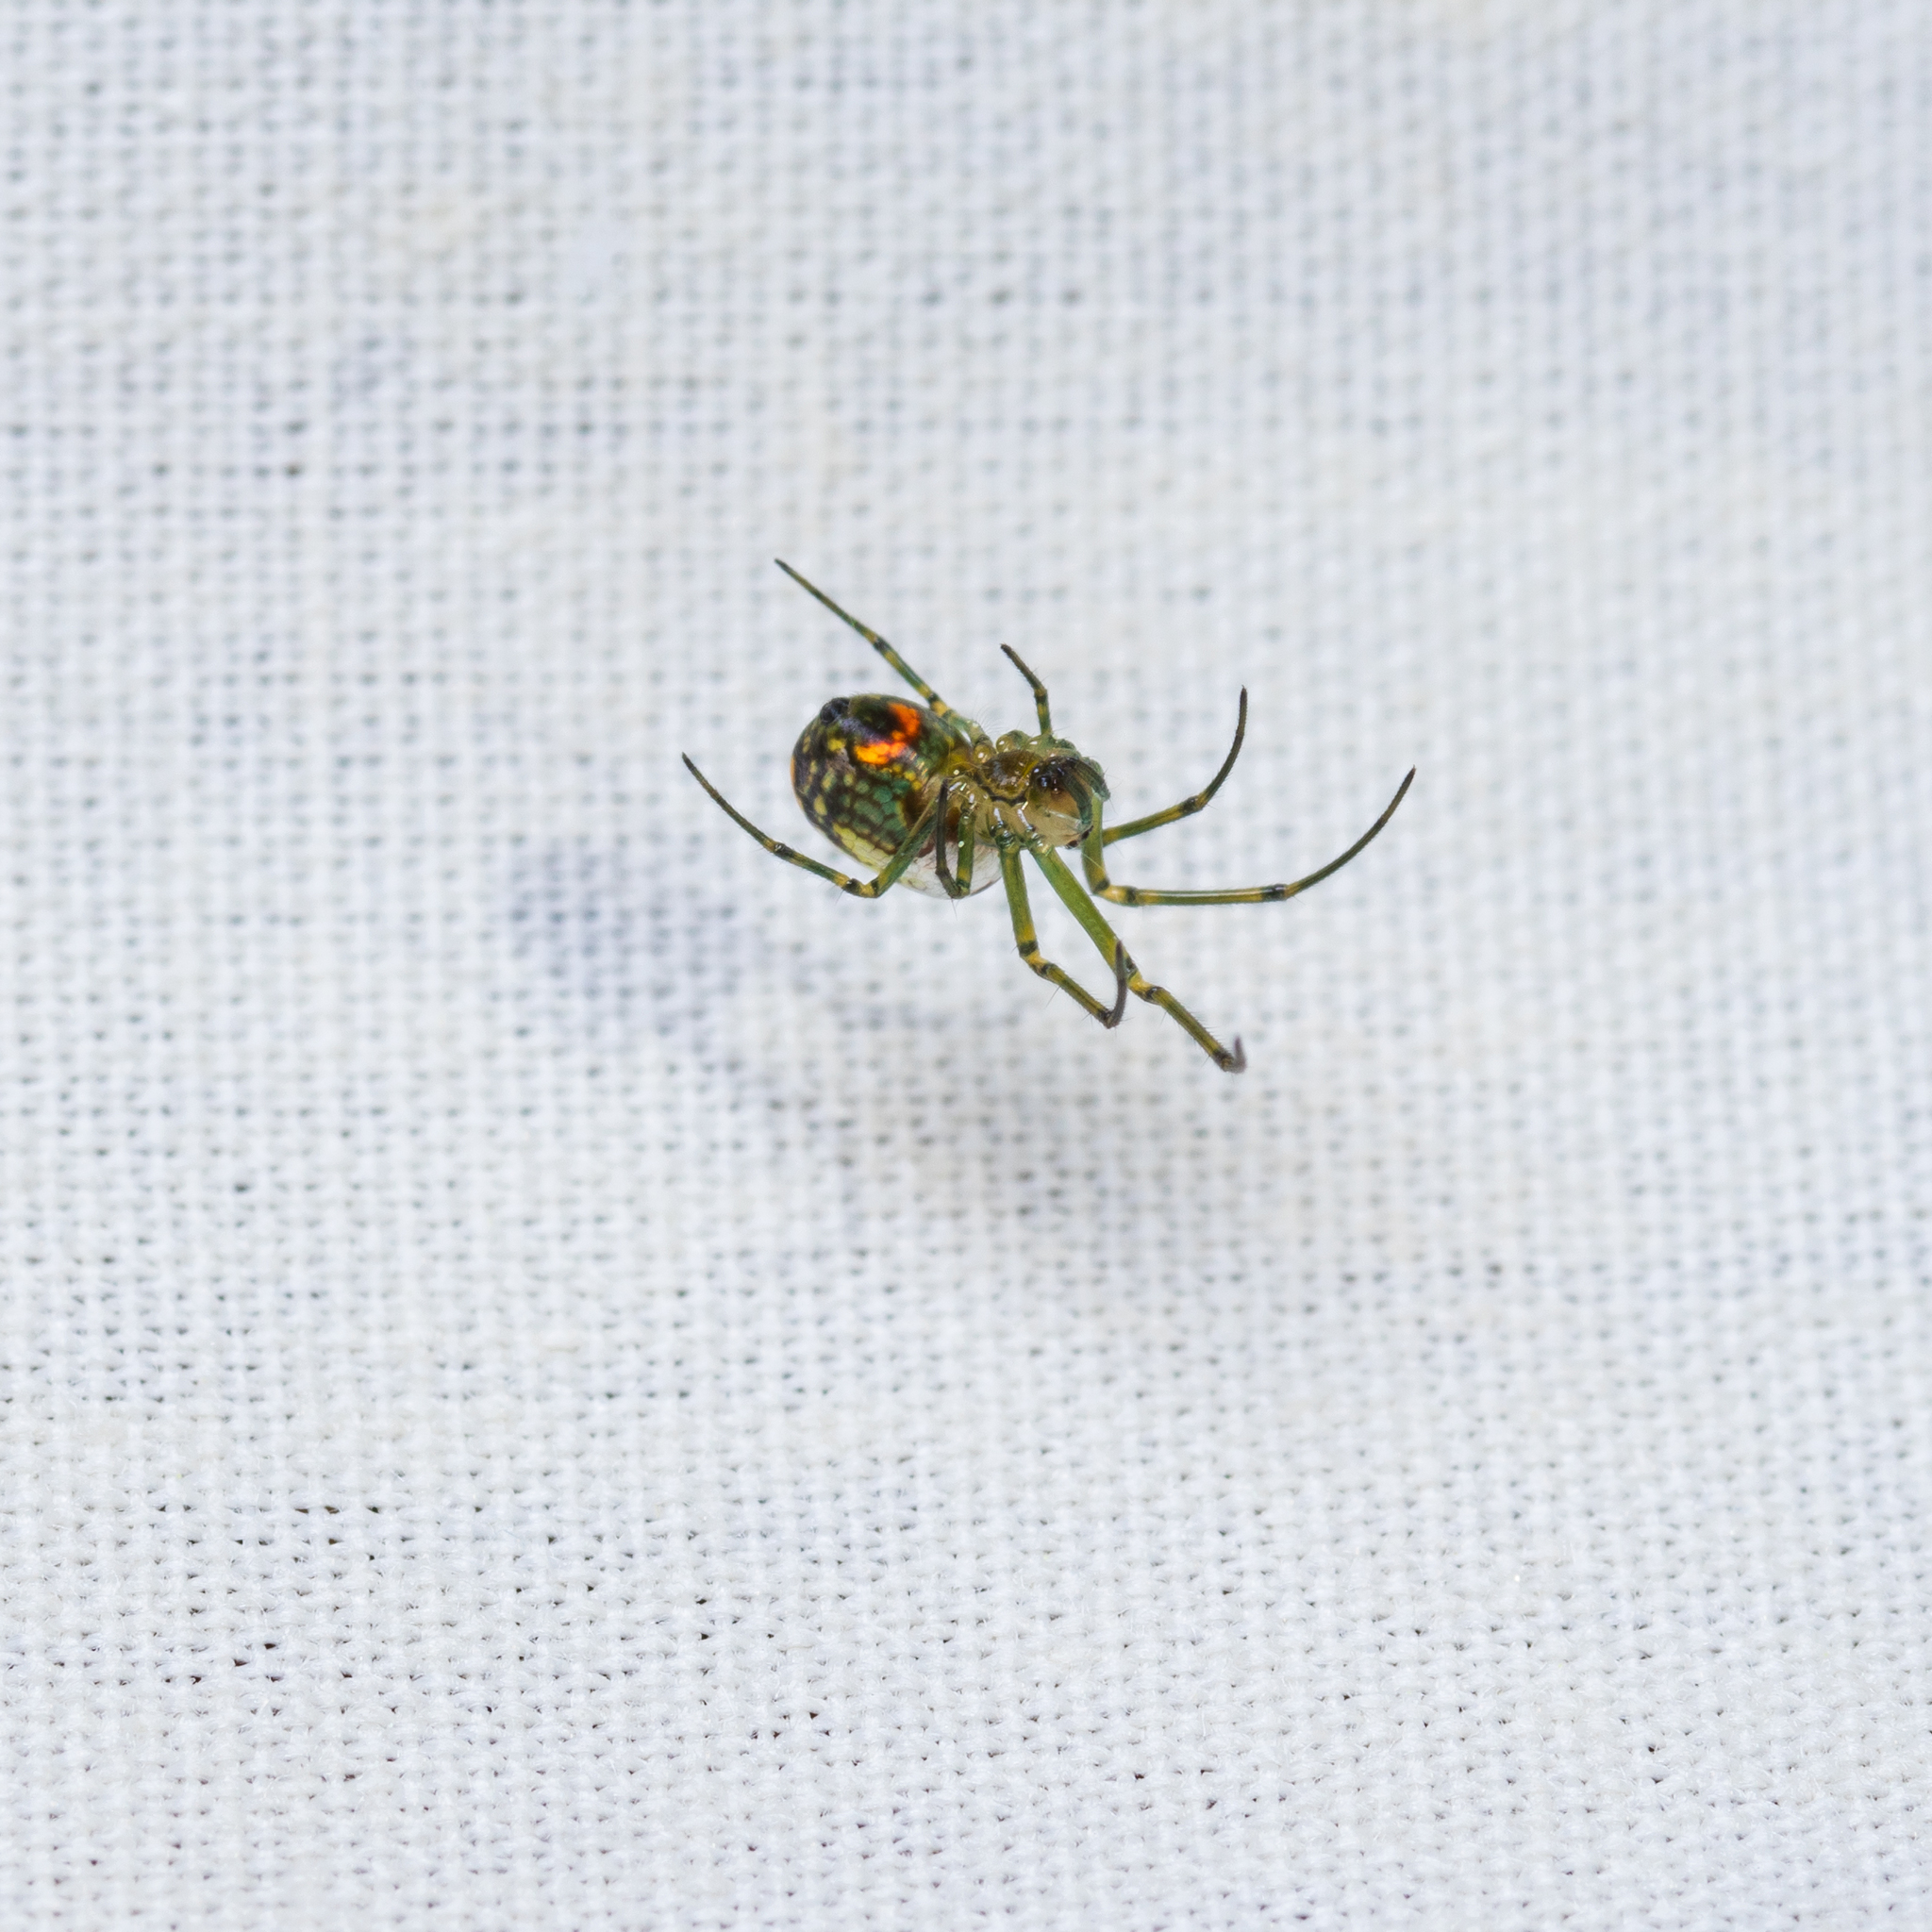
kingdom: Animalia
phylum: Arthropoda
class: Arachnida
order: Araneae
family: Tetragnathidae
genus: Leucauge
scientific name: Leucauge venusta
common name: Longjawed orb weavers
